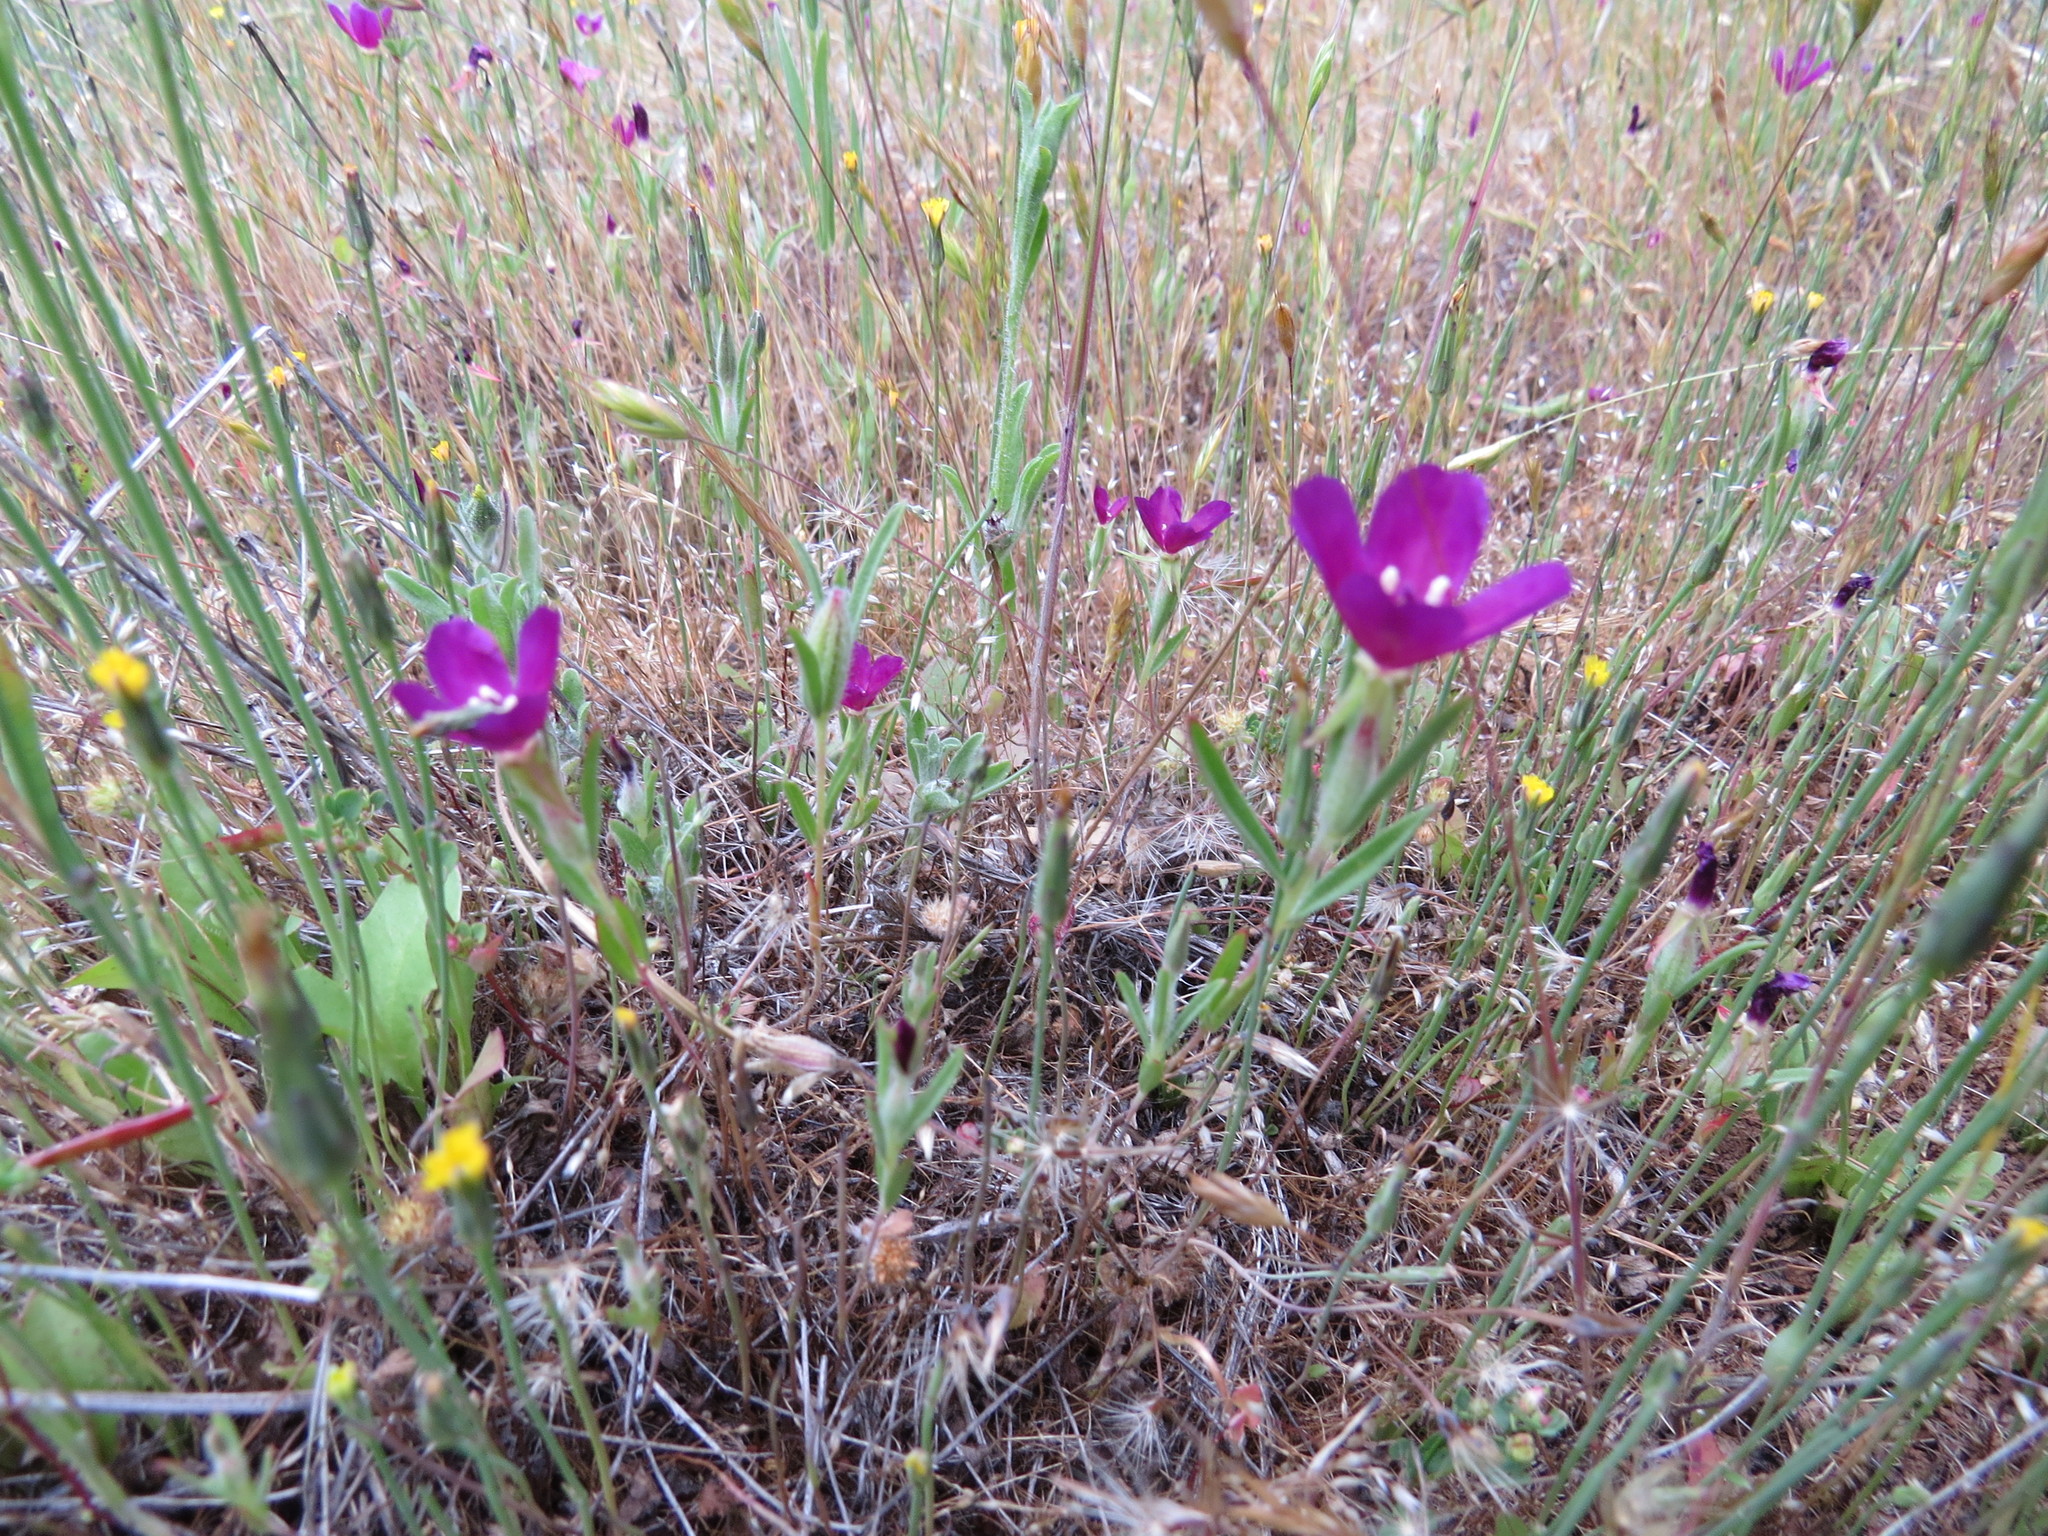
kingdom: Plantae
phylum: Tracheophyta
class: Magnoliopsida
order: Myrtales
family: Onagraceae
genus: Clarkia
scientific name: Clarkia purpurea
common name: Purple clarkia
